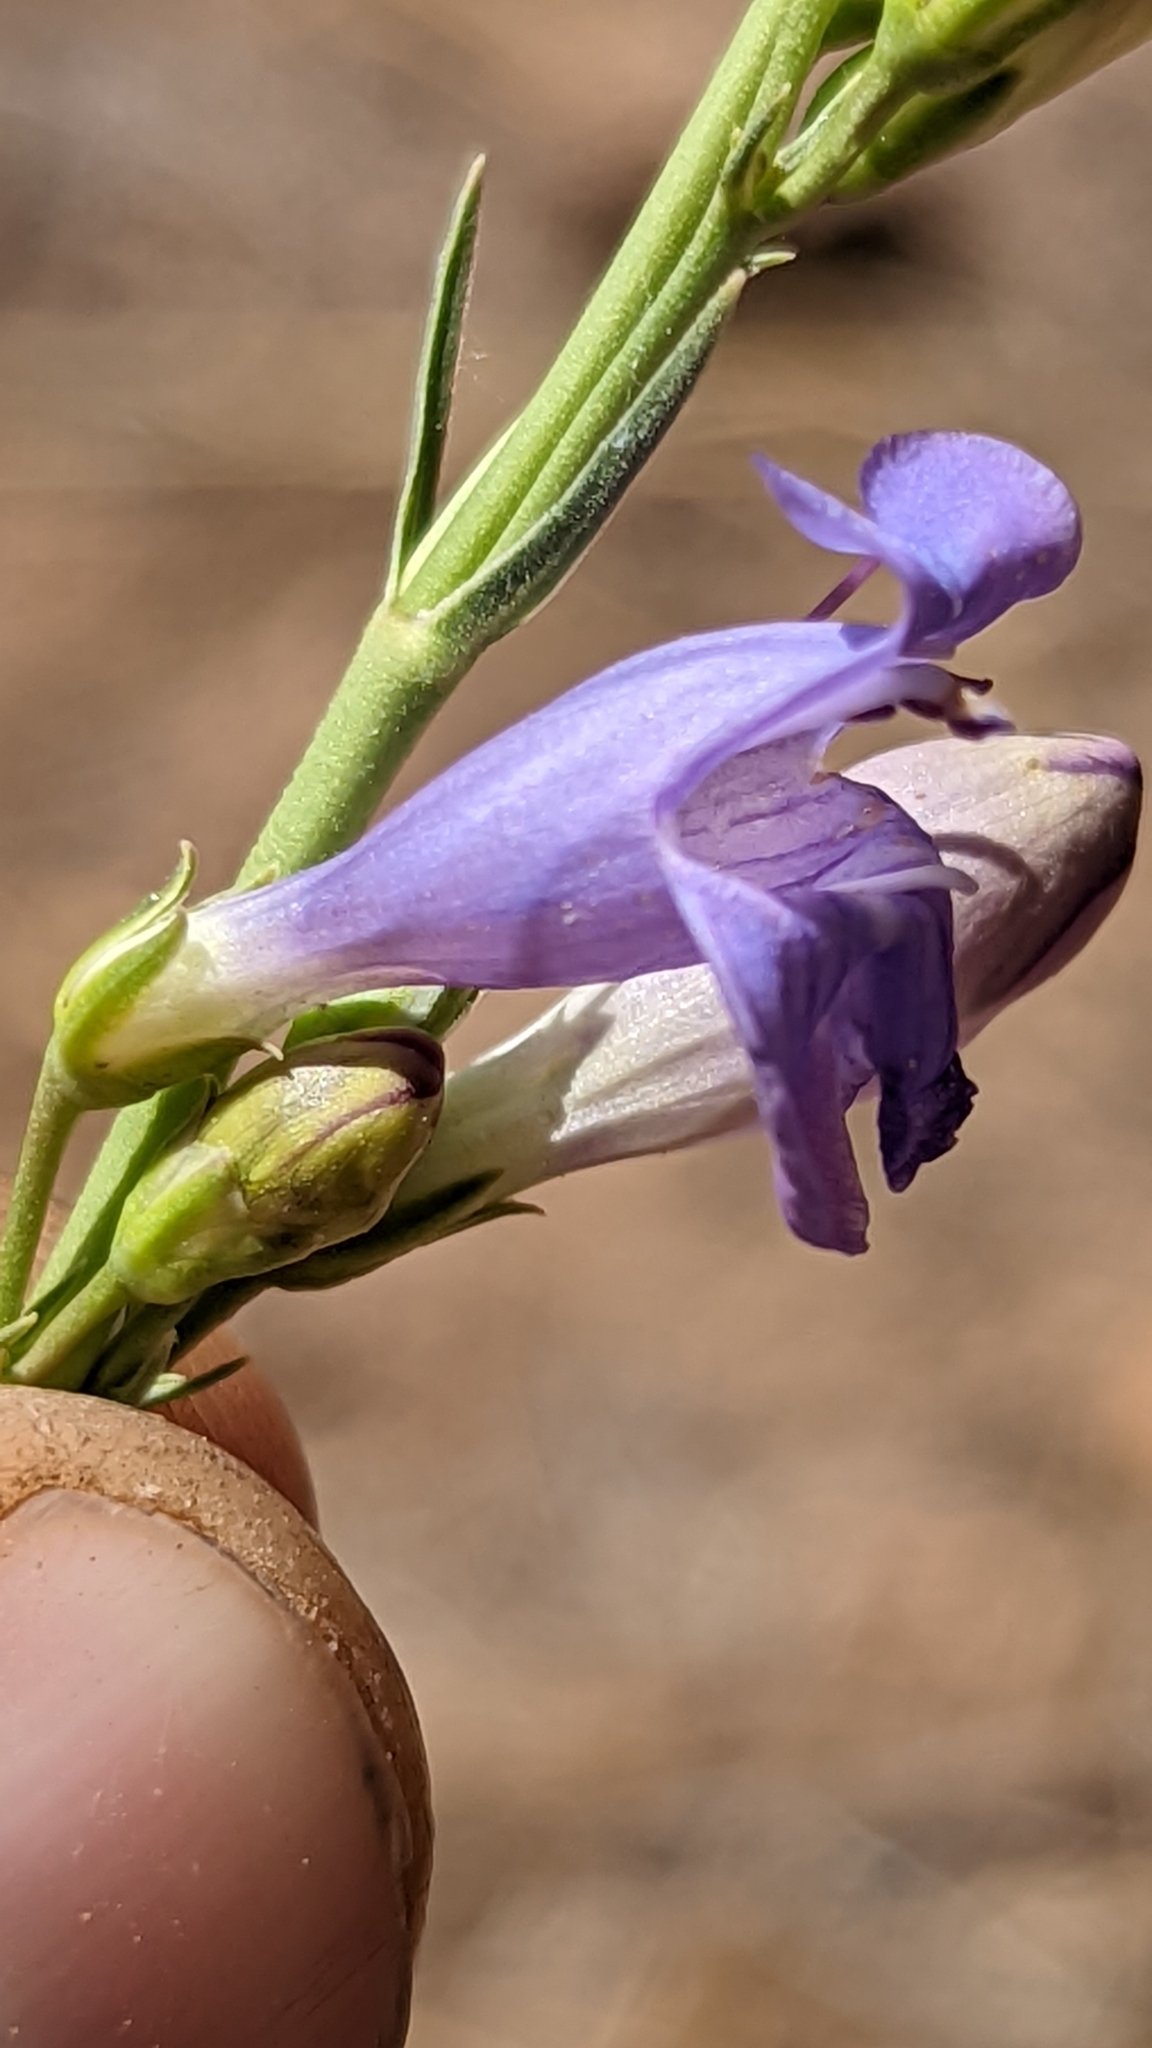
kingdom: Plantae
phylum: Tracheophyta
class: Magnoliopsida
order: Lamiales
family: Plantaginaceae
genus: Penstemon
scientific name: Penstemon pseudoputus
